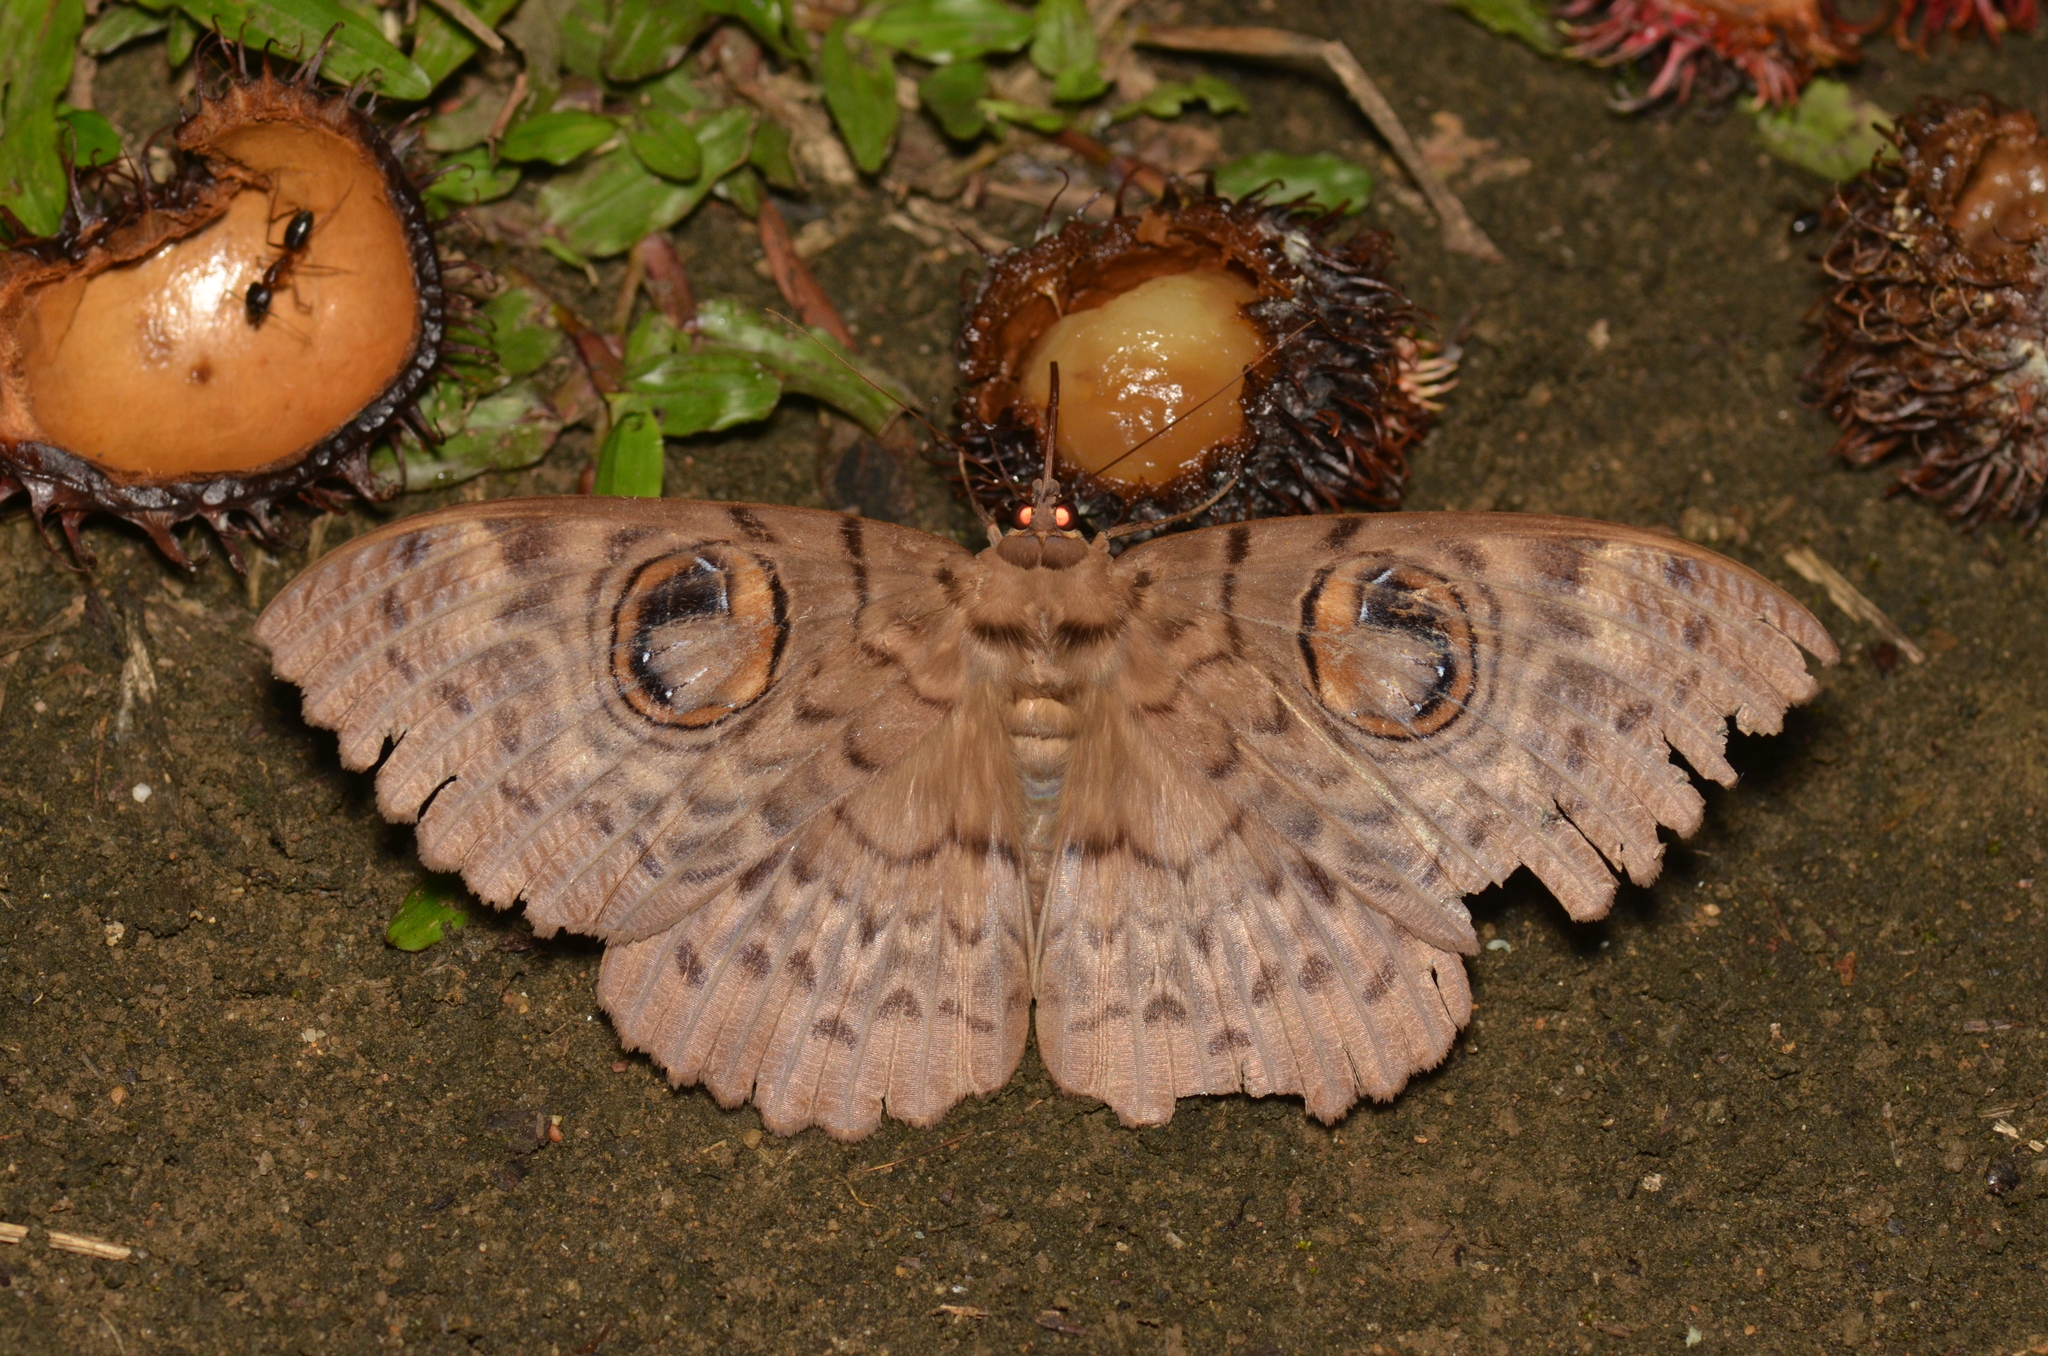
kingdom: Animalia
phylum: Arthropoda
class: Insecta
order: Lepidoptera
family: Erebidae
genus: Erebus
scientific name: Erebus macrops
